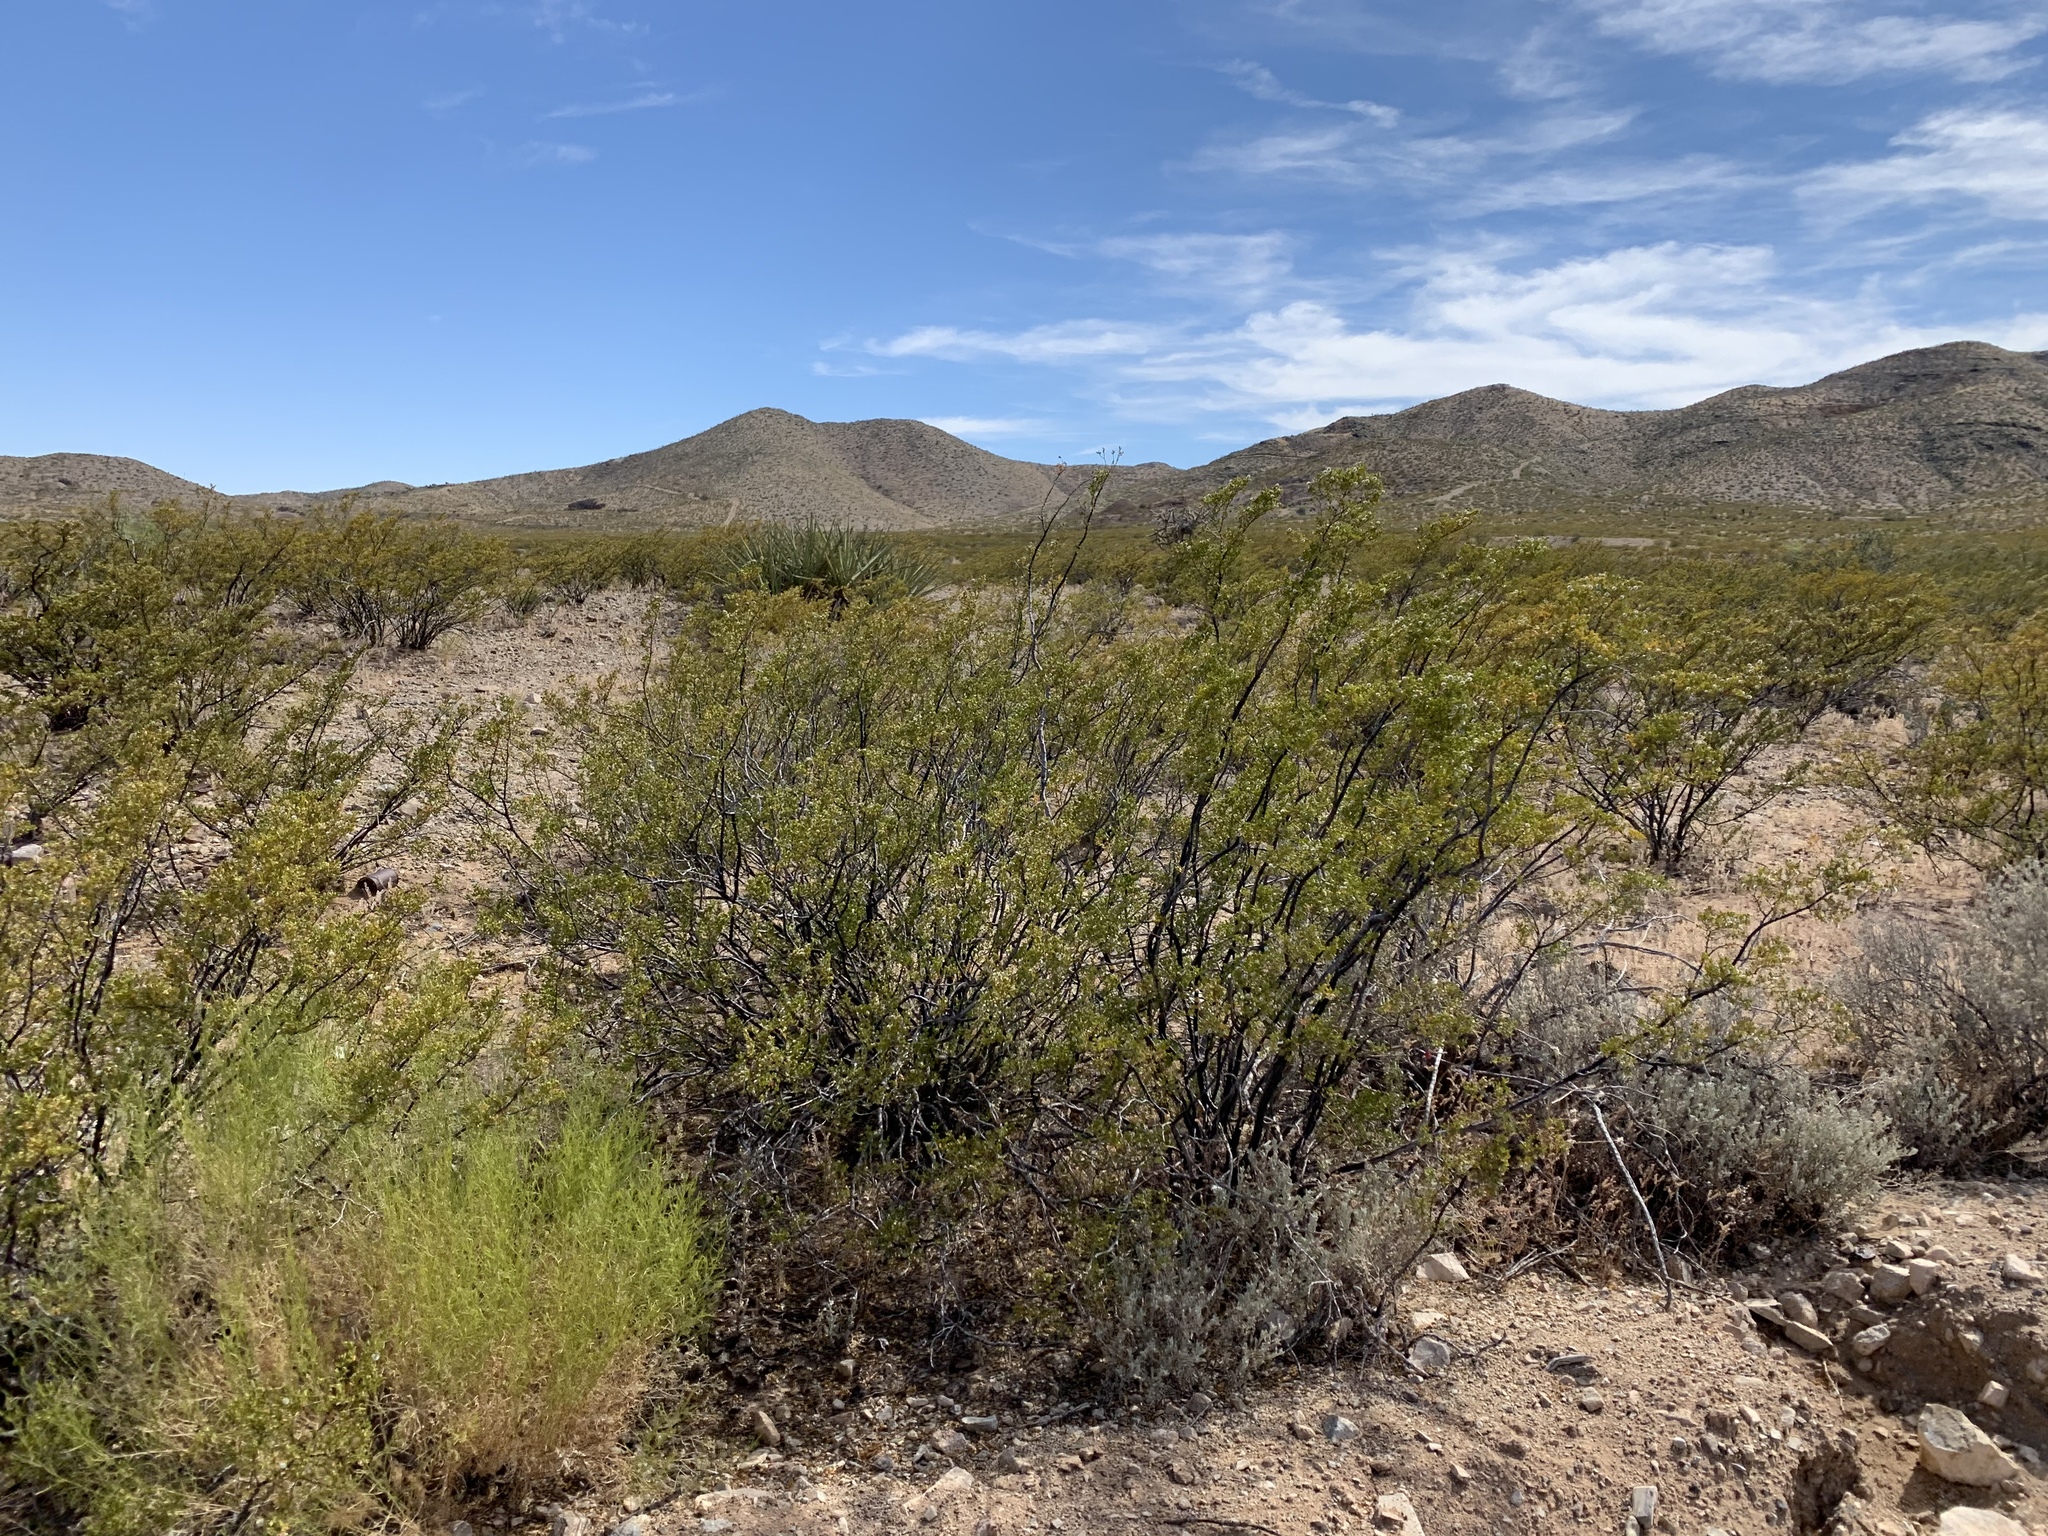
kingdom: Plantae
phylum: Tracheophyta
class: Magnoliopsida
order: Zygophyllales
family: Zygophyllaceae
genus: Larrea
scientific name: Larrea tridentata
